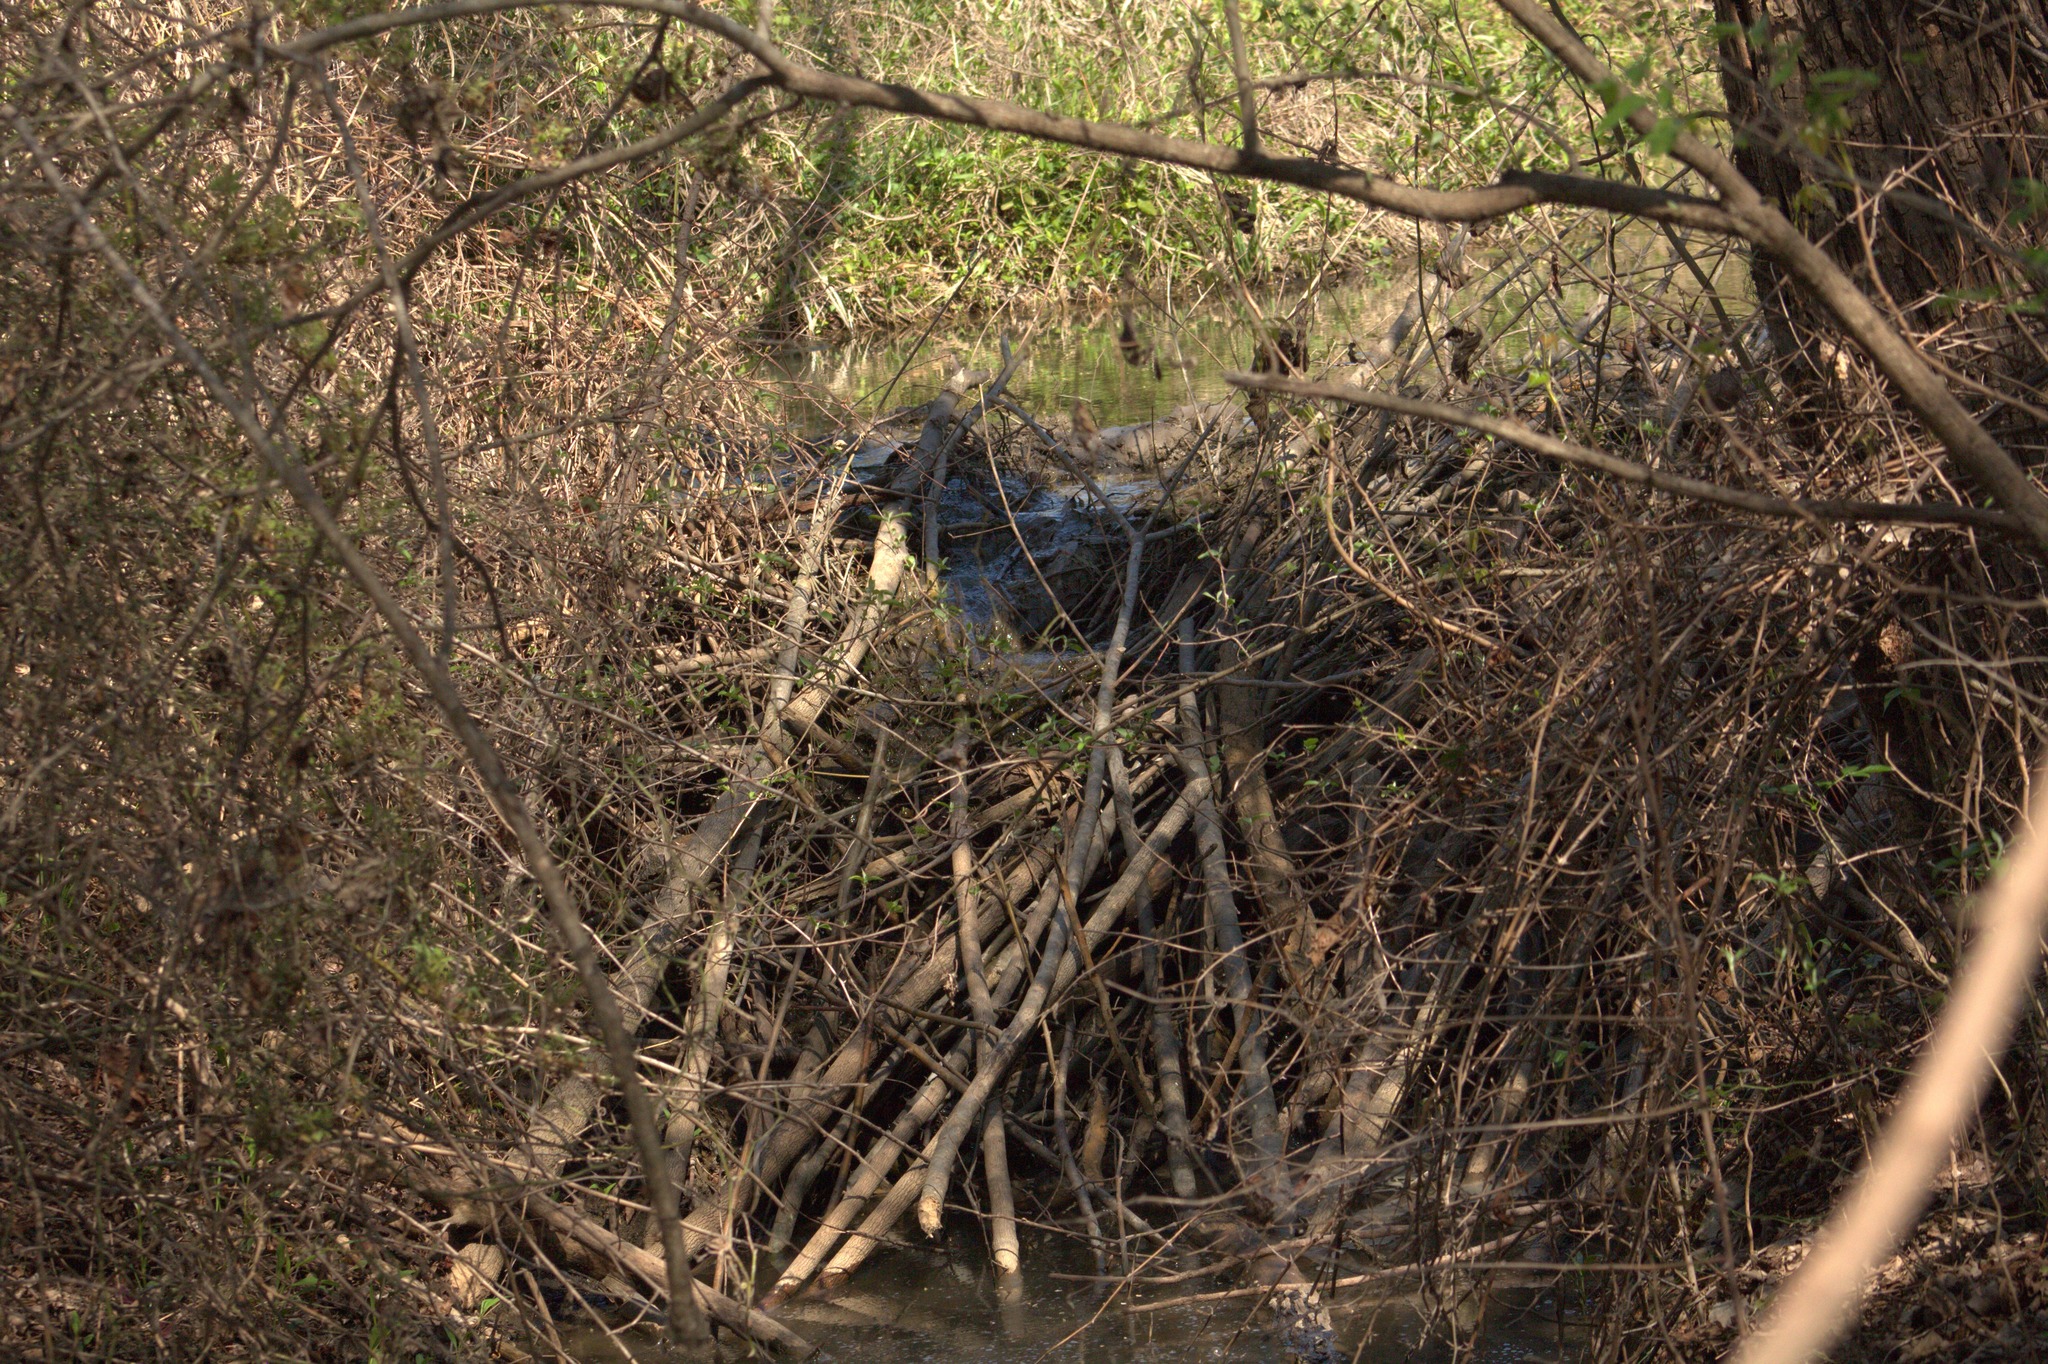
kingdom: Animalia
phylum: Chordata
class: Mammalia
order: Rodentia
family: Castoridae
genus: Castor
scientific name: Castor canadensis
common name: American beaver
